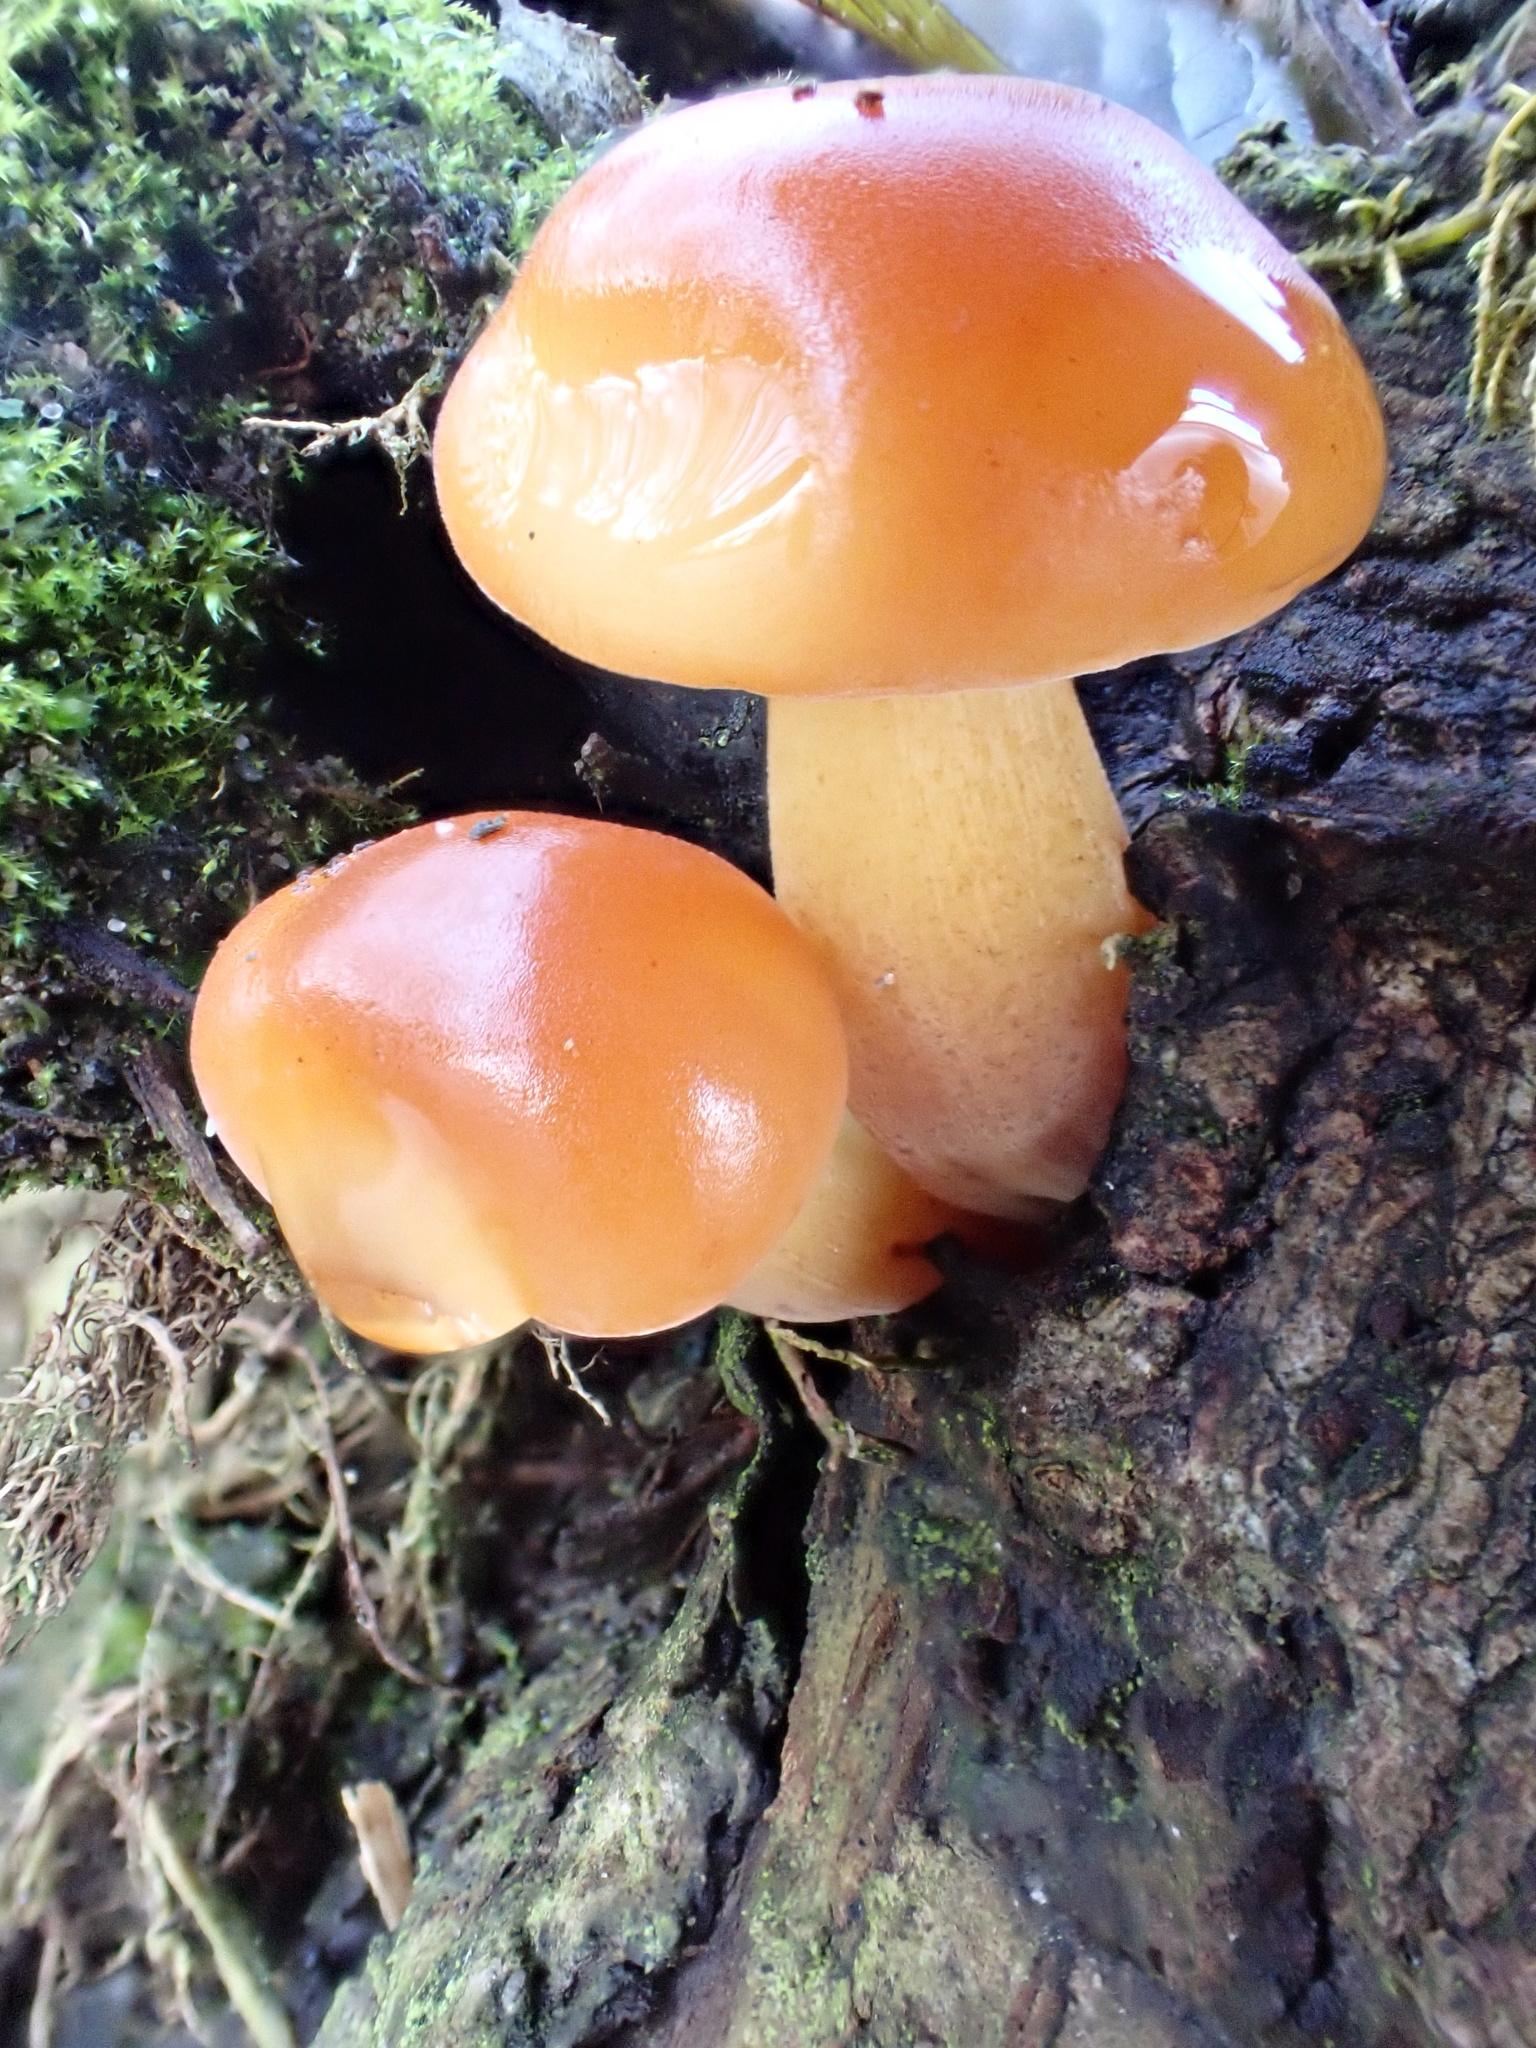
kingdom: Fungi
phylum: Basidiomycota
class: Agaricomycetes
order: Agaricales
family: Physalacriaceae
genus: Flammulina
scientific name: Flammulina
